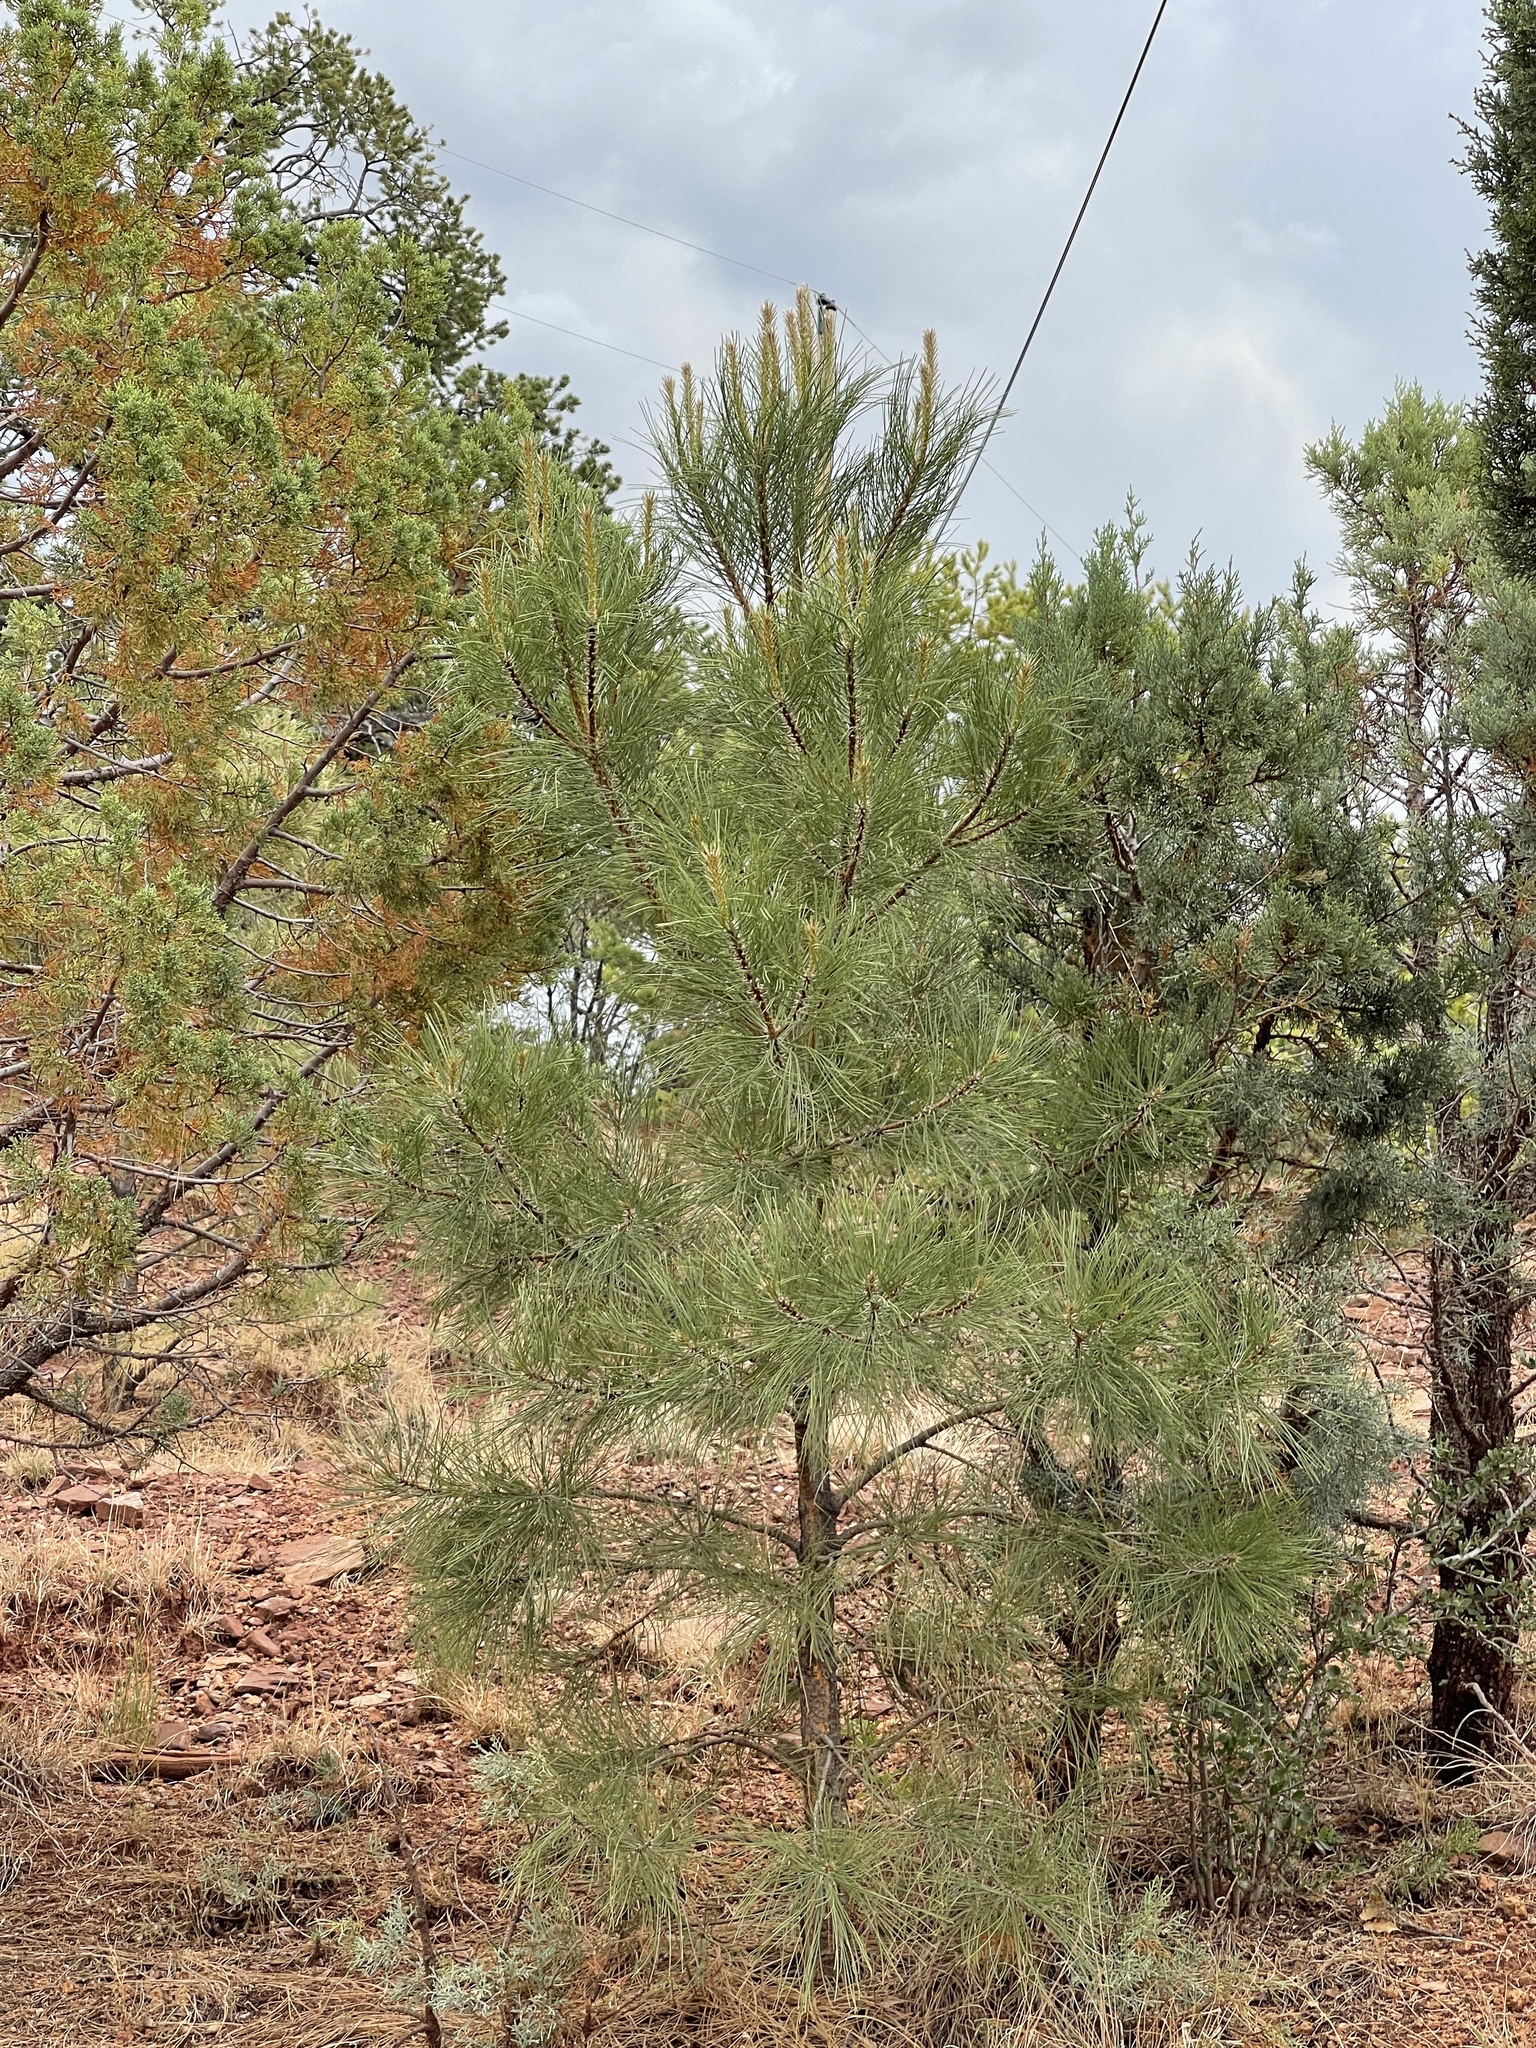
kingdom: Plantae
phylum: Tracheophyta
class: Pinopsida
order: Pinales
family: Pinaceae
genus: Pinus
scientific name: Pinus ponderosa
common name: Western yellow-pine
